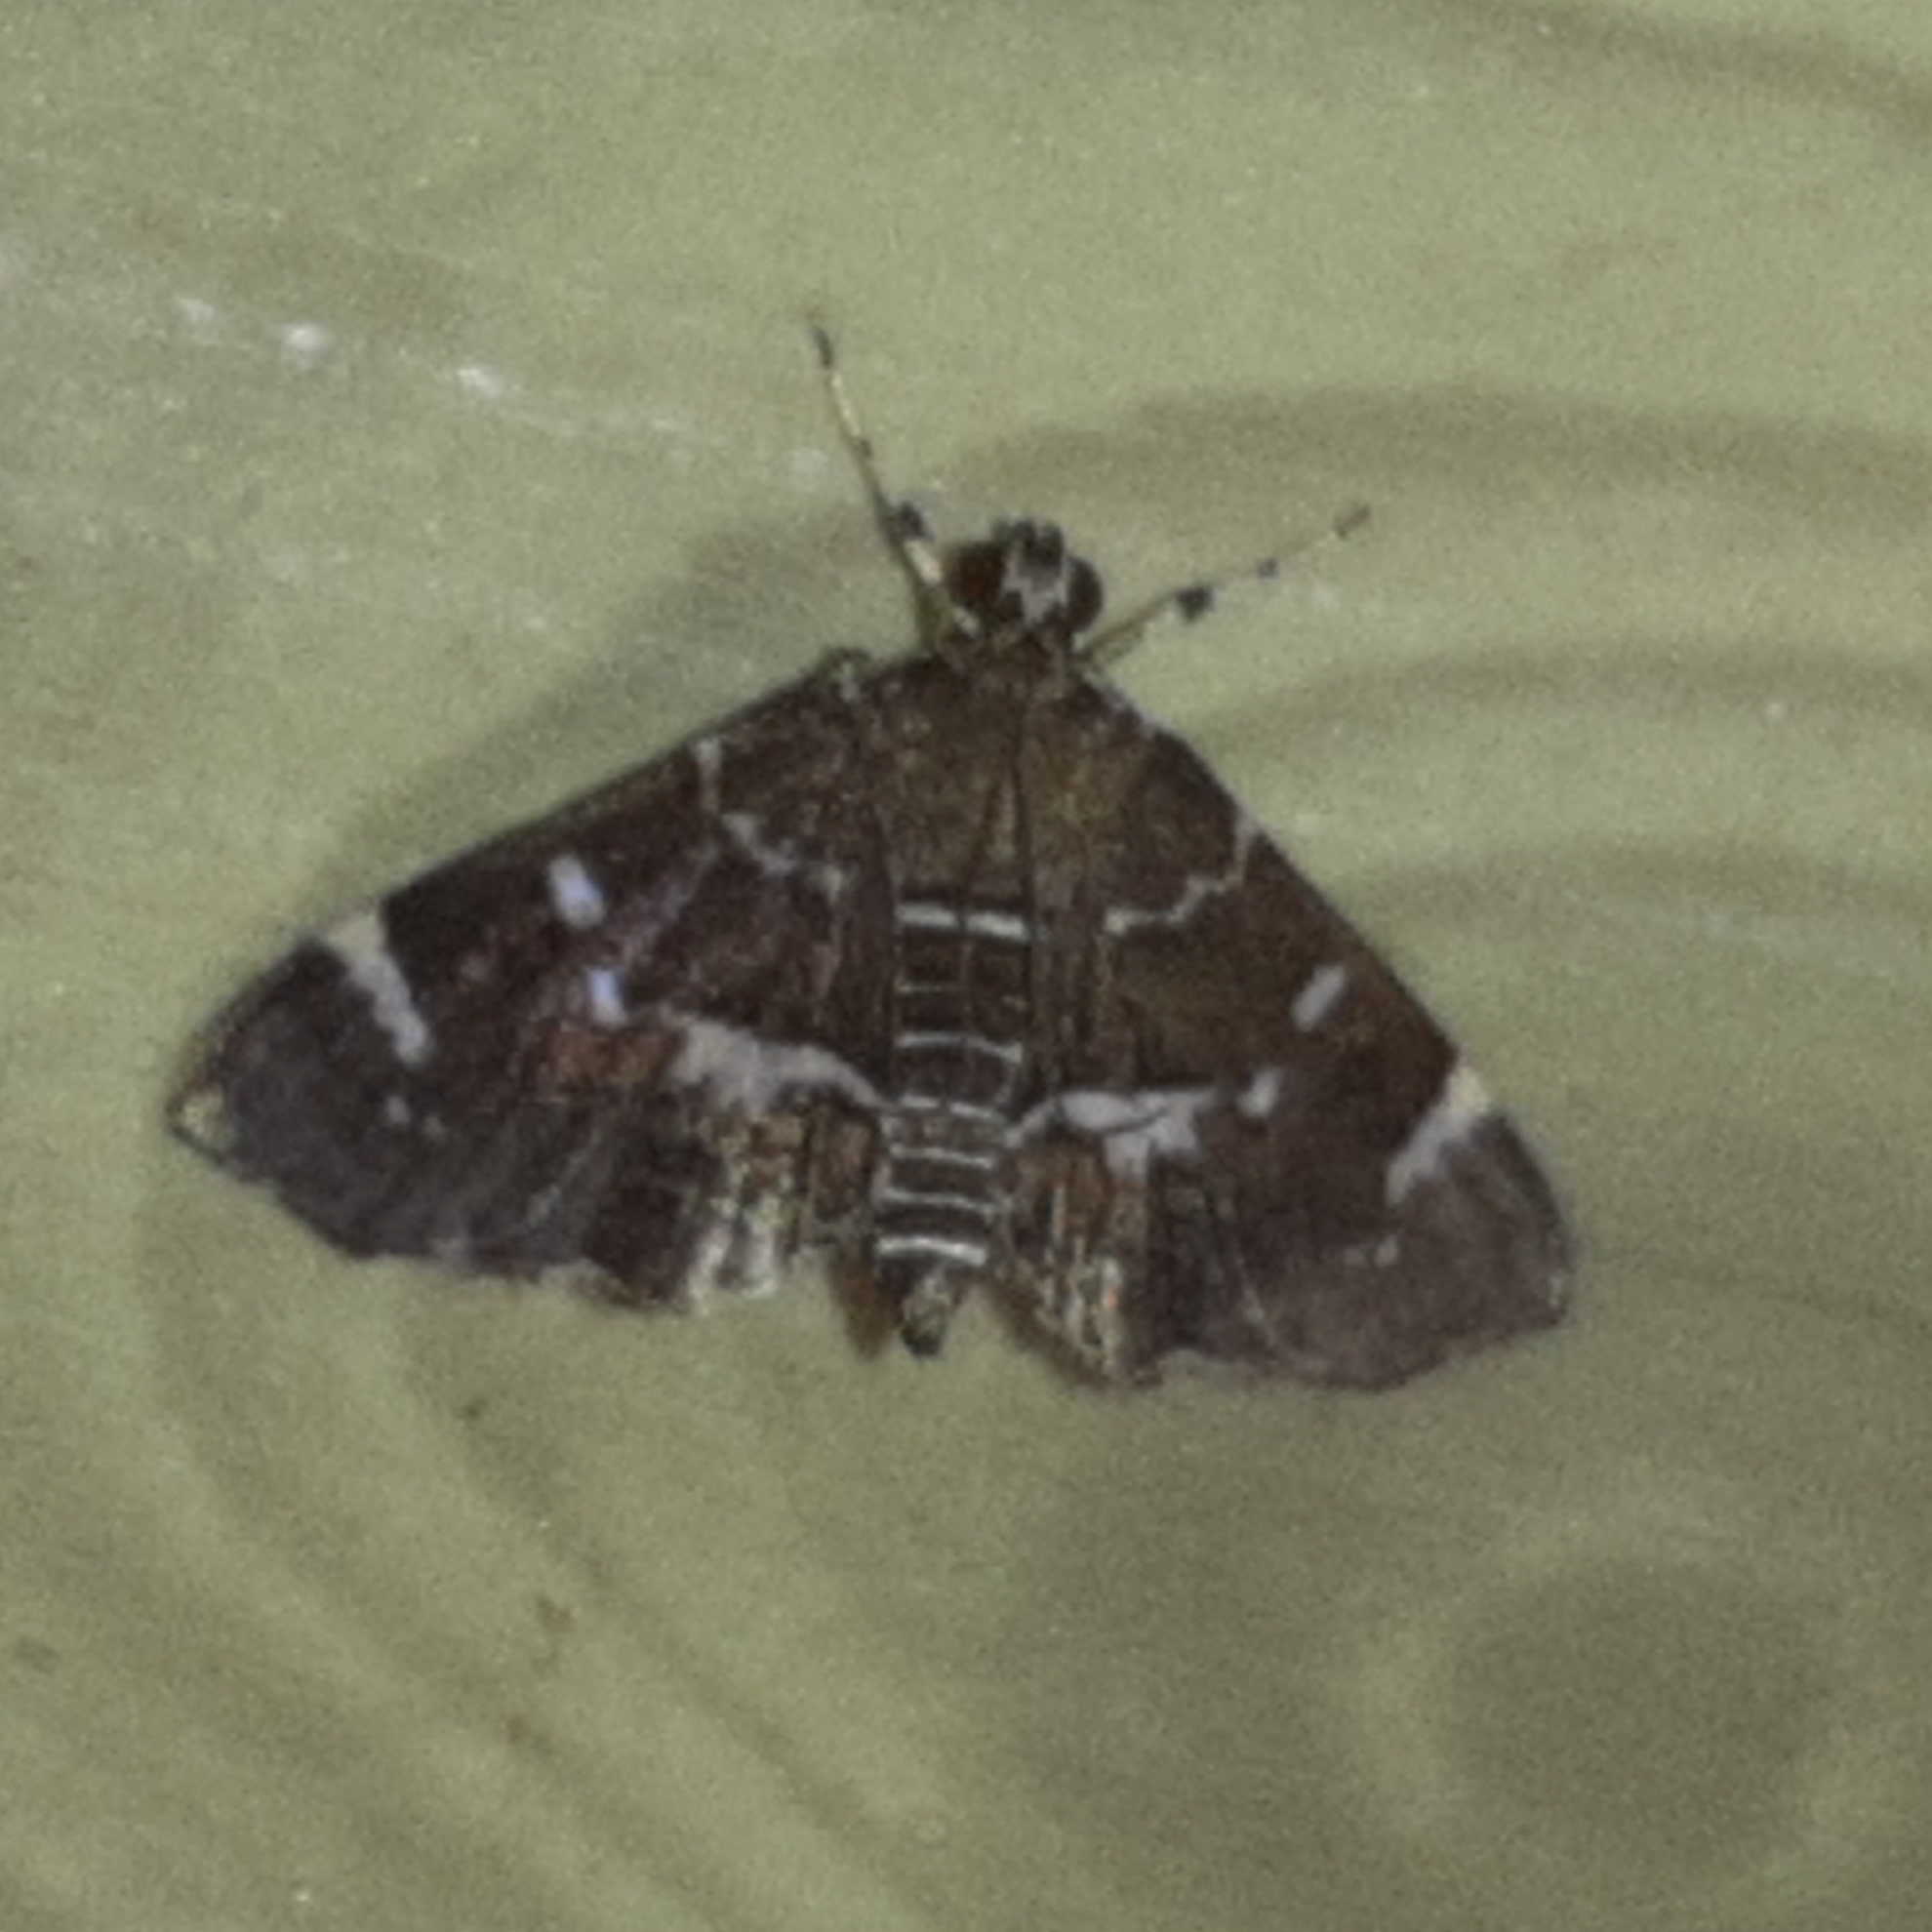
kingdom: Animalia
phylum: Arthropoda
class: Insecta
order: Lepidoptera
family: Crambidae
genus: Hymenia
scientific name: Hymenia perspectalis
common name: Spotted beet webworm
